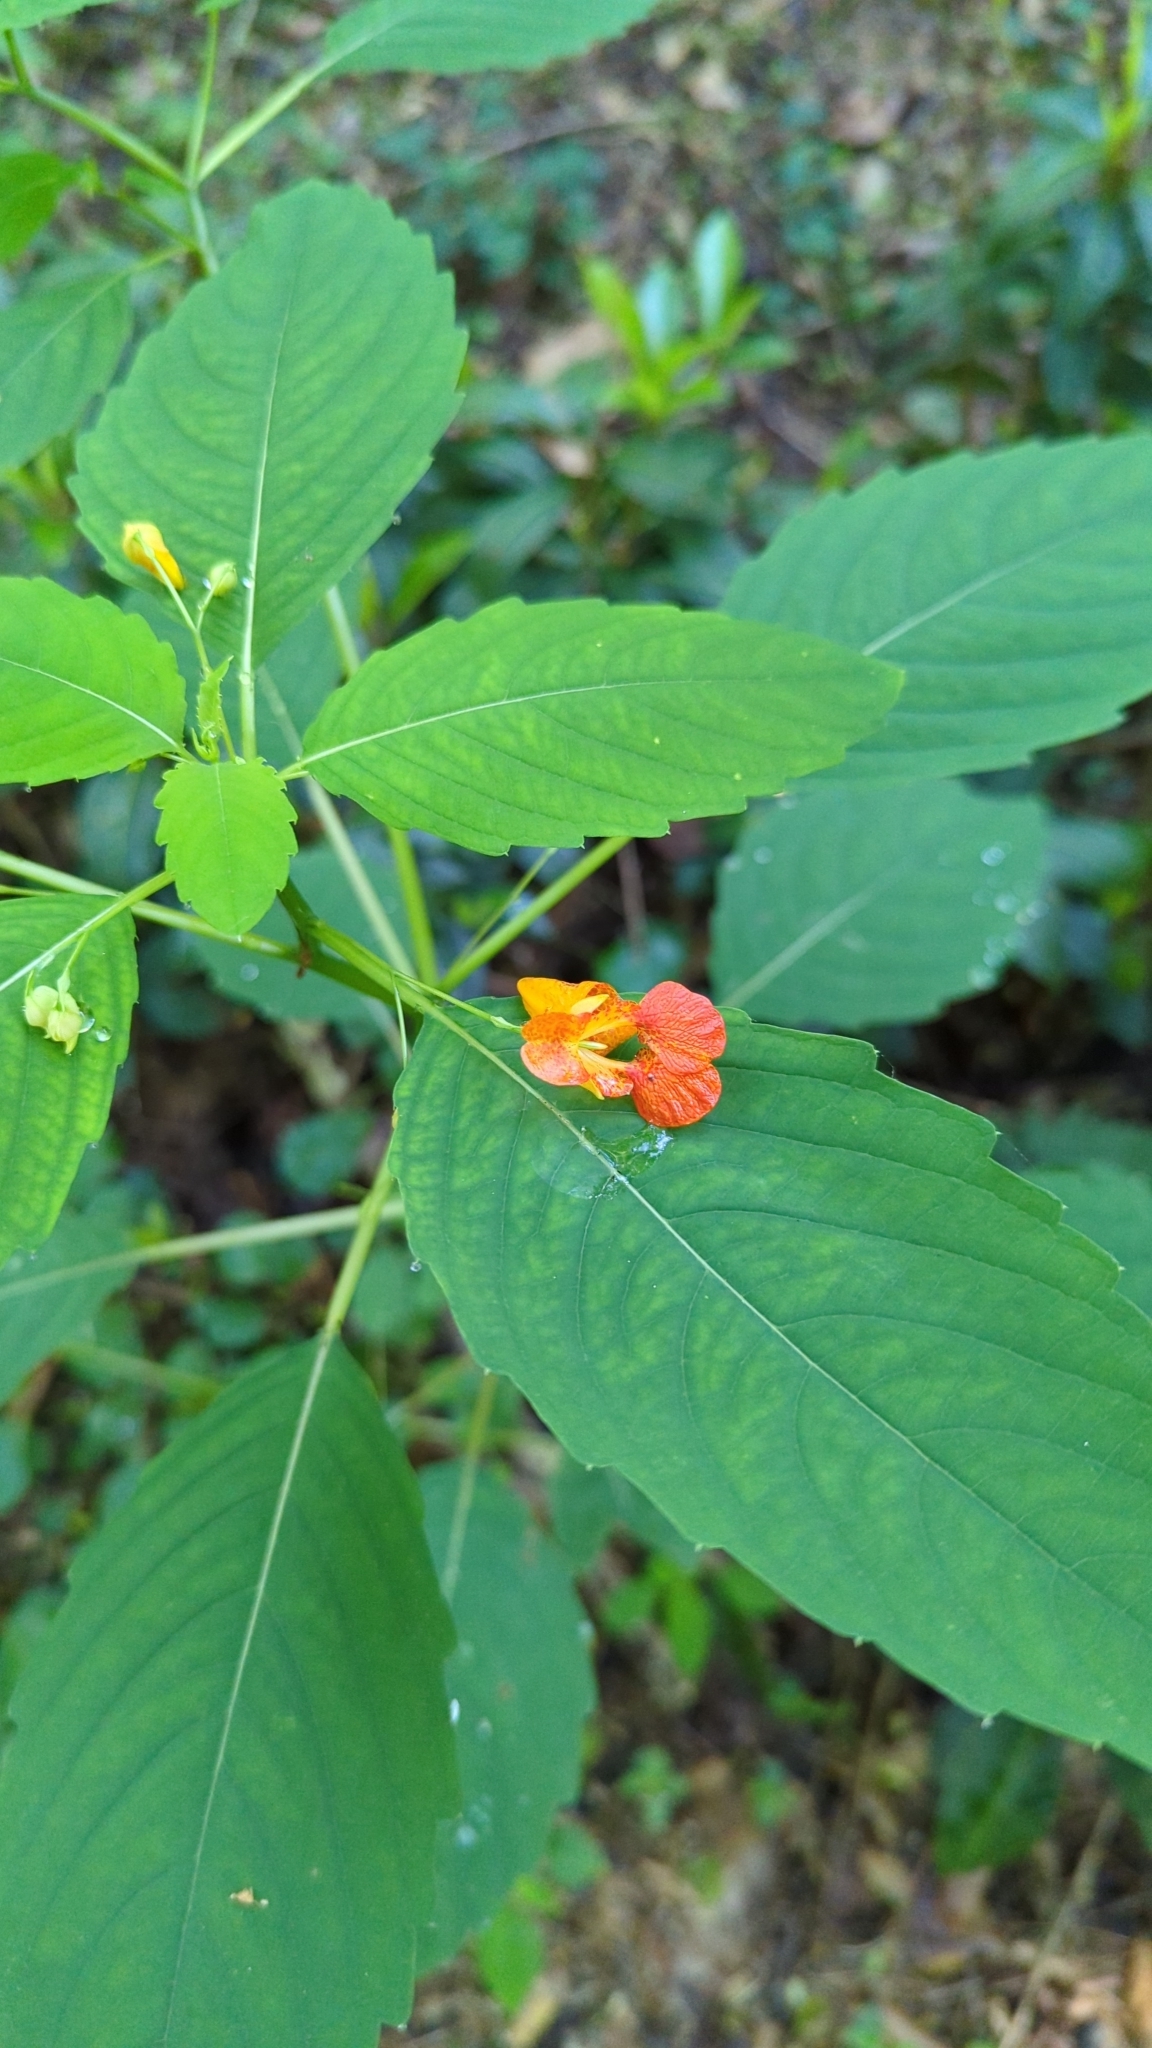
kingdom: Plantae
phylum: Tracheophyta
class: Magnoliopsida
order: Ericales
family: Balsaminaceae
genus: Impatiens
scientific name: Impatiens capensis
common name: Orange balsam
